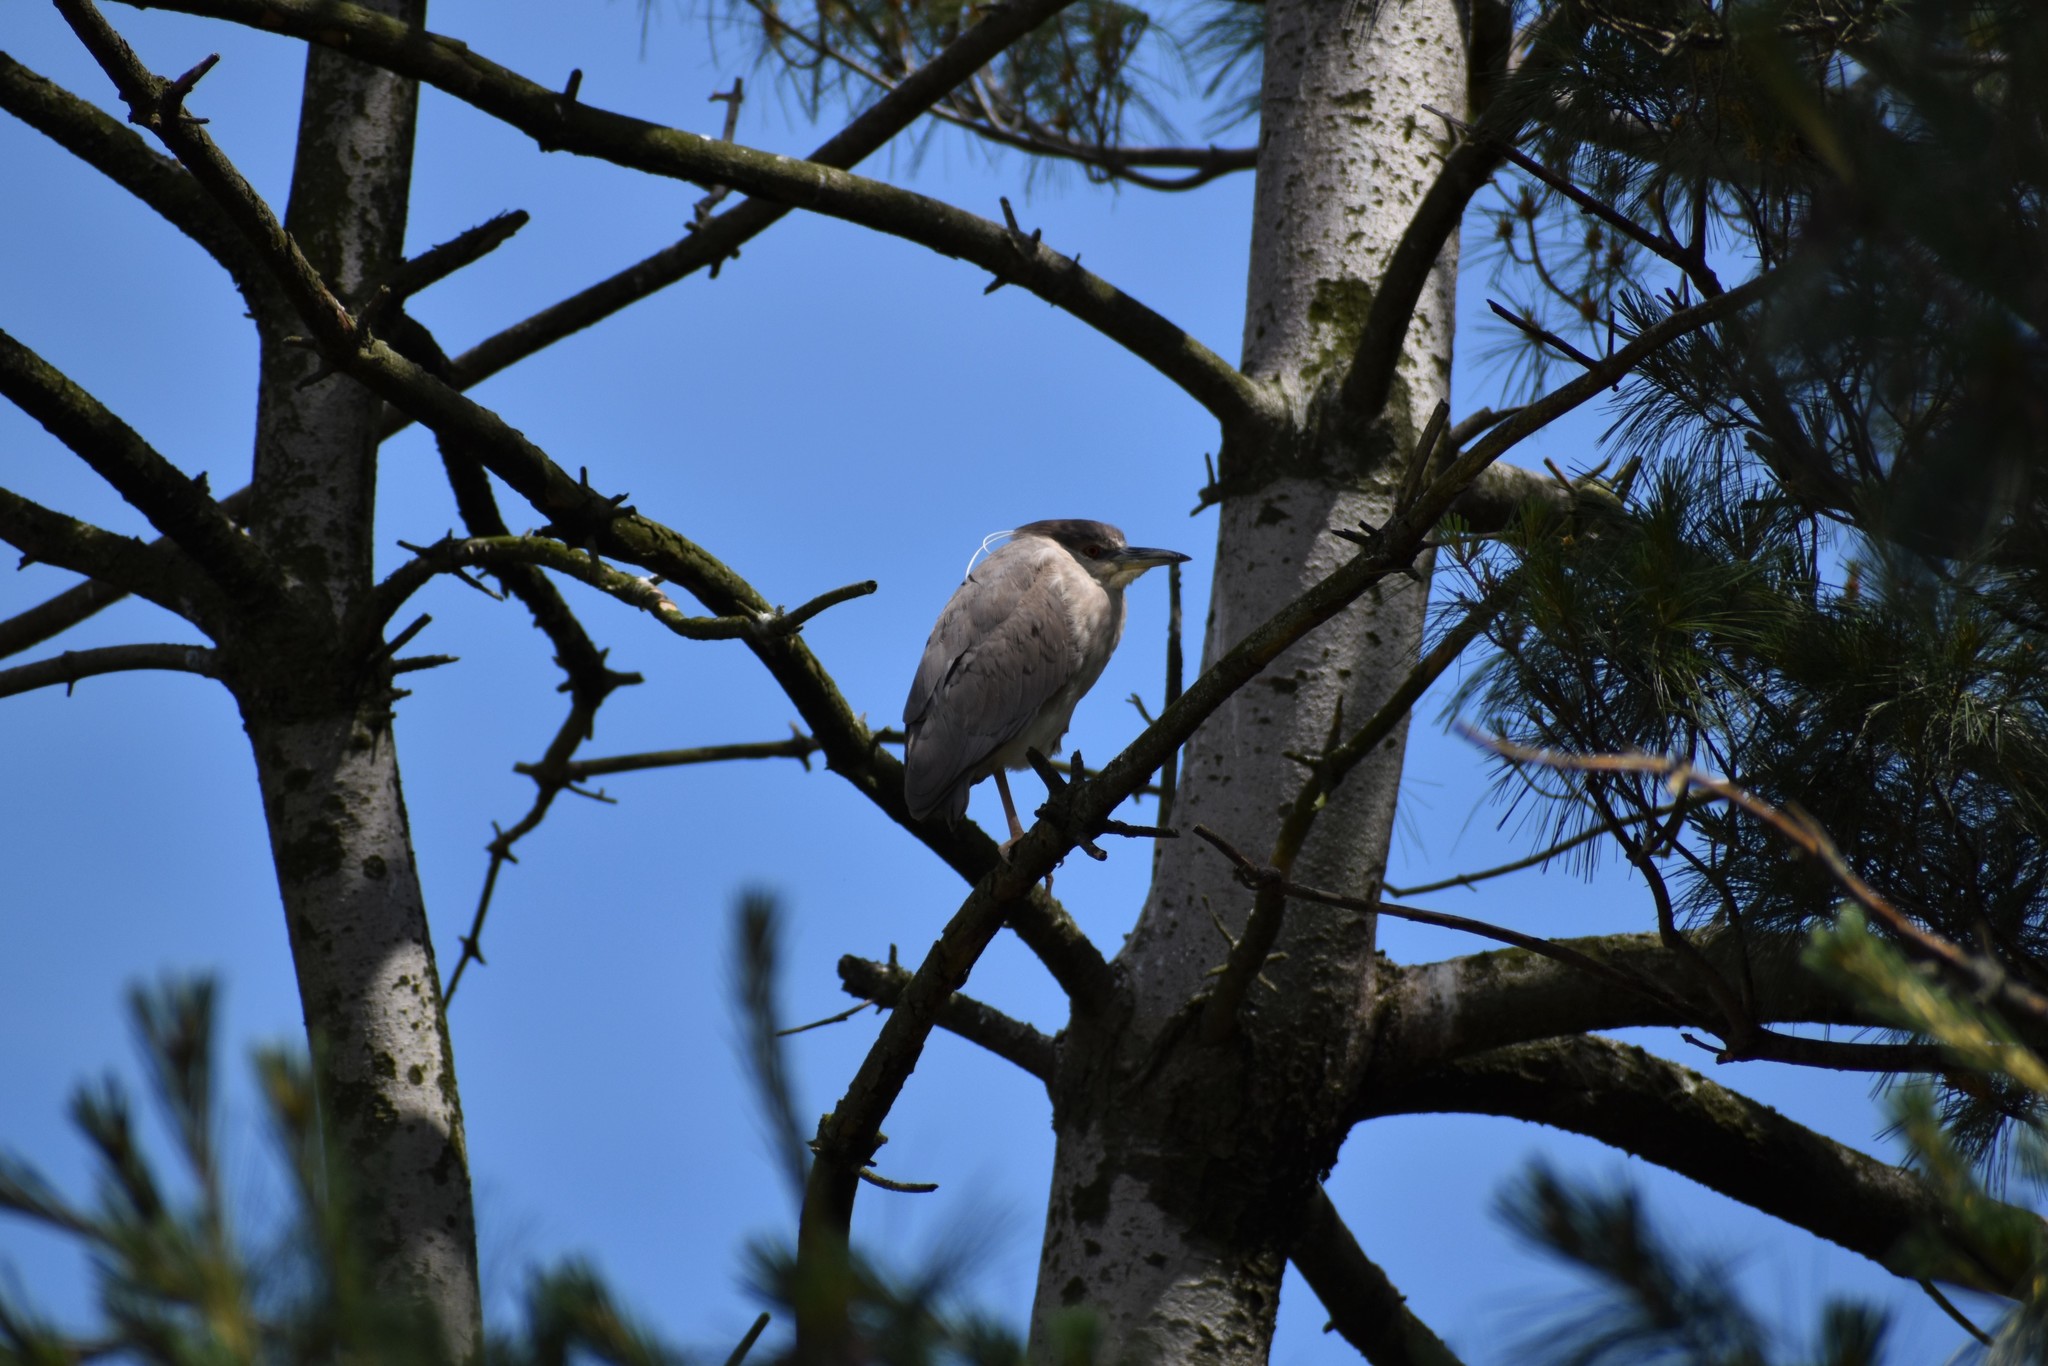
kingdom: Animalia
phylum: Chordata
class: Aves
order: Pelecaniformes
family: Ardeidae
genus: Nycticorax
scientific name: Nycticorax nycticorax
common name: Black-crowned night heron
